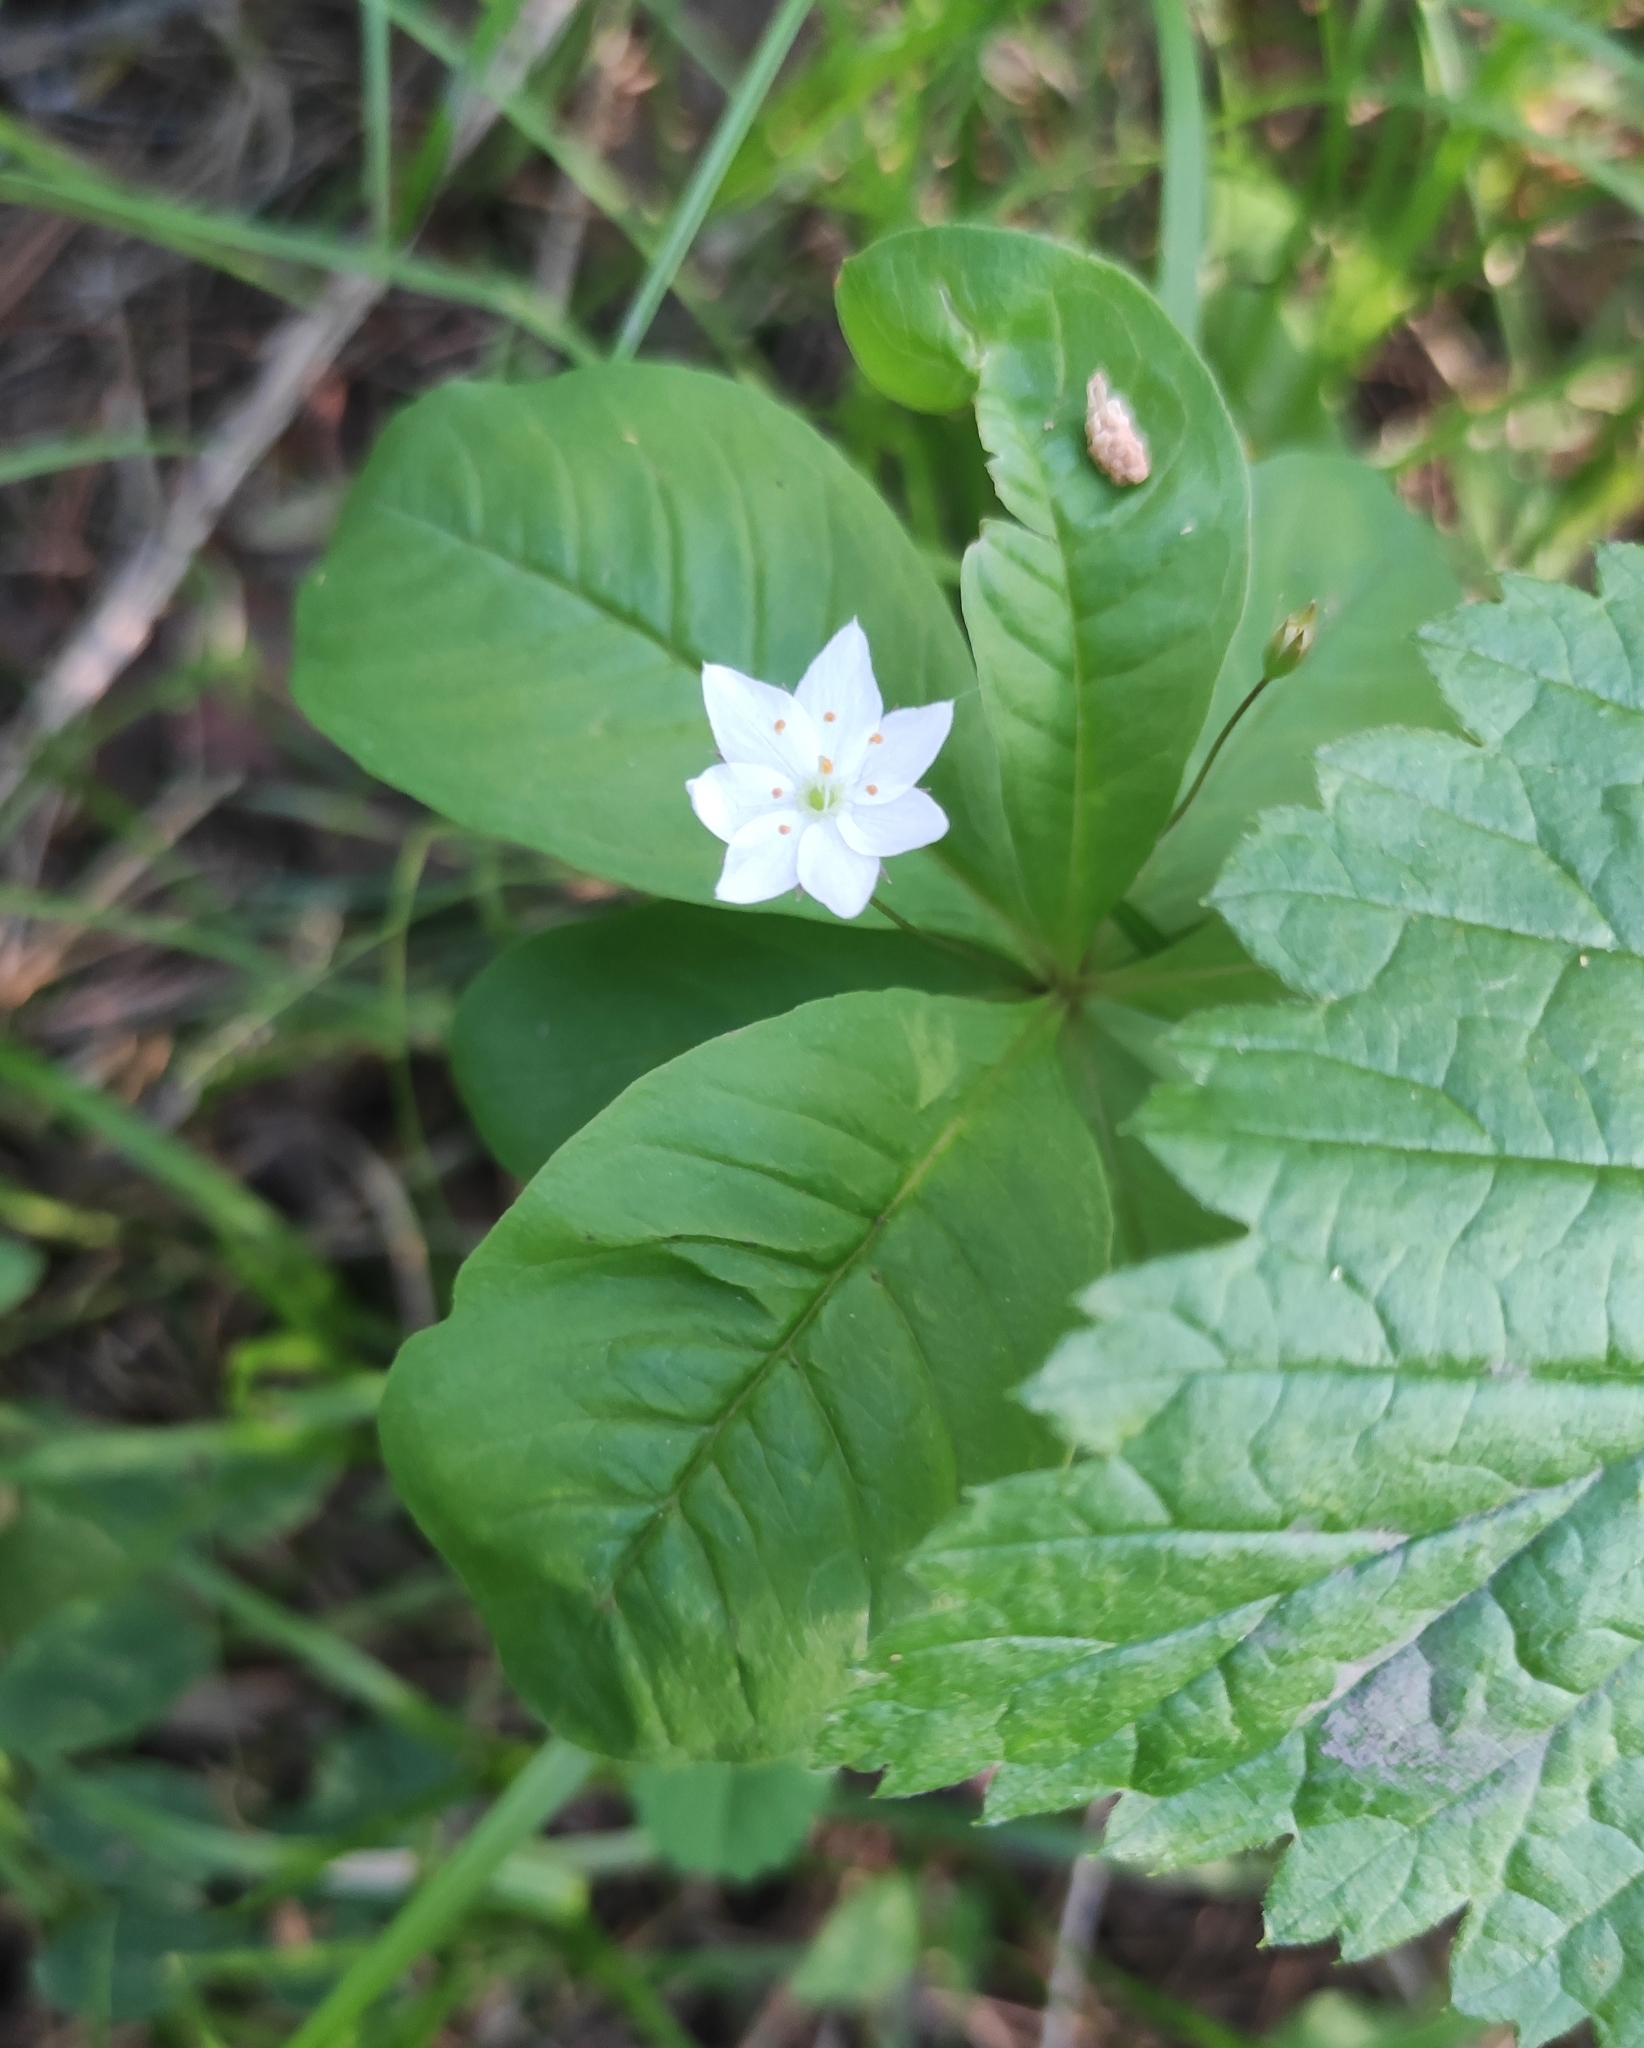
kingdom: Plantae
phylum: Tracheophyta
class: Magnoliopsida
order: Ericales
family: Primulaceae
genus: Lysimachia
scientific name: Lysimachia europaea
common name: Arctic starflower
